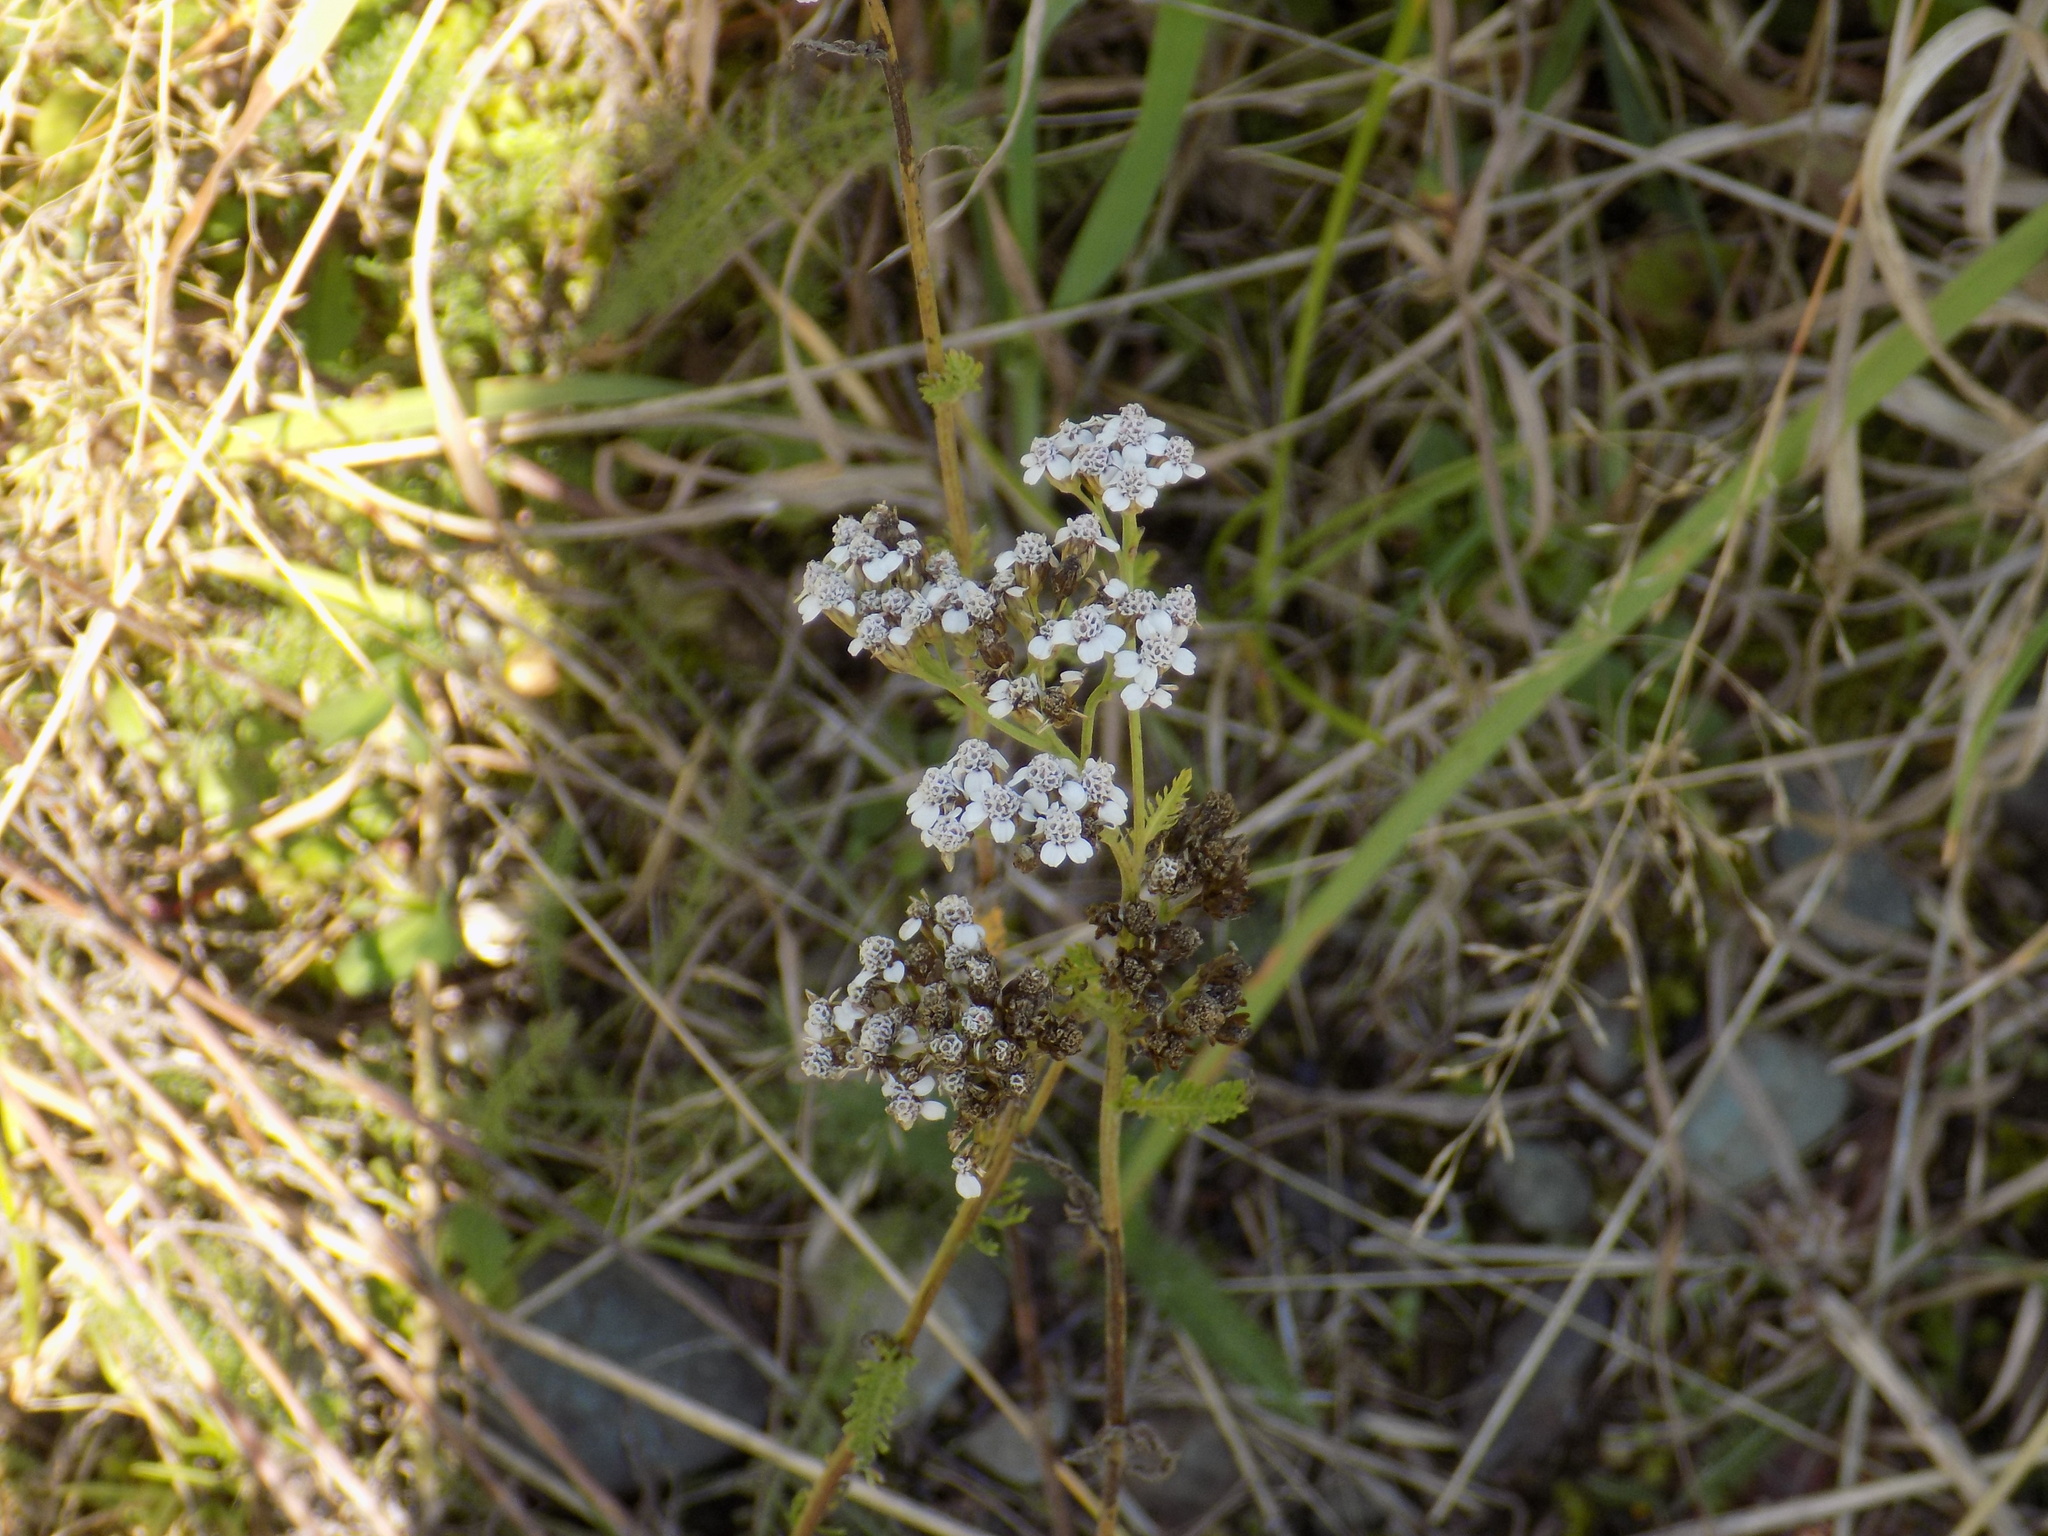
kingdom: Plantae
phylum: Tracheophyta
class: Magnoliopsida
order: Asterales
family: Asteraceae
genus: Achillea
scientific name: Achillea asiatica
